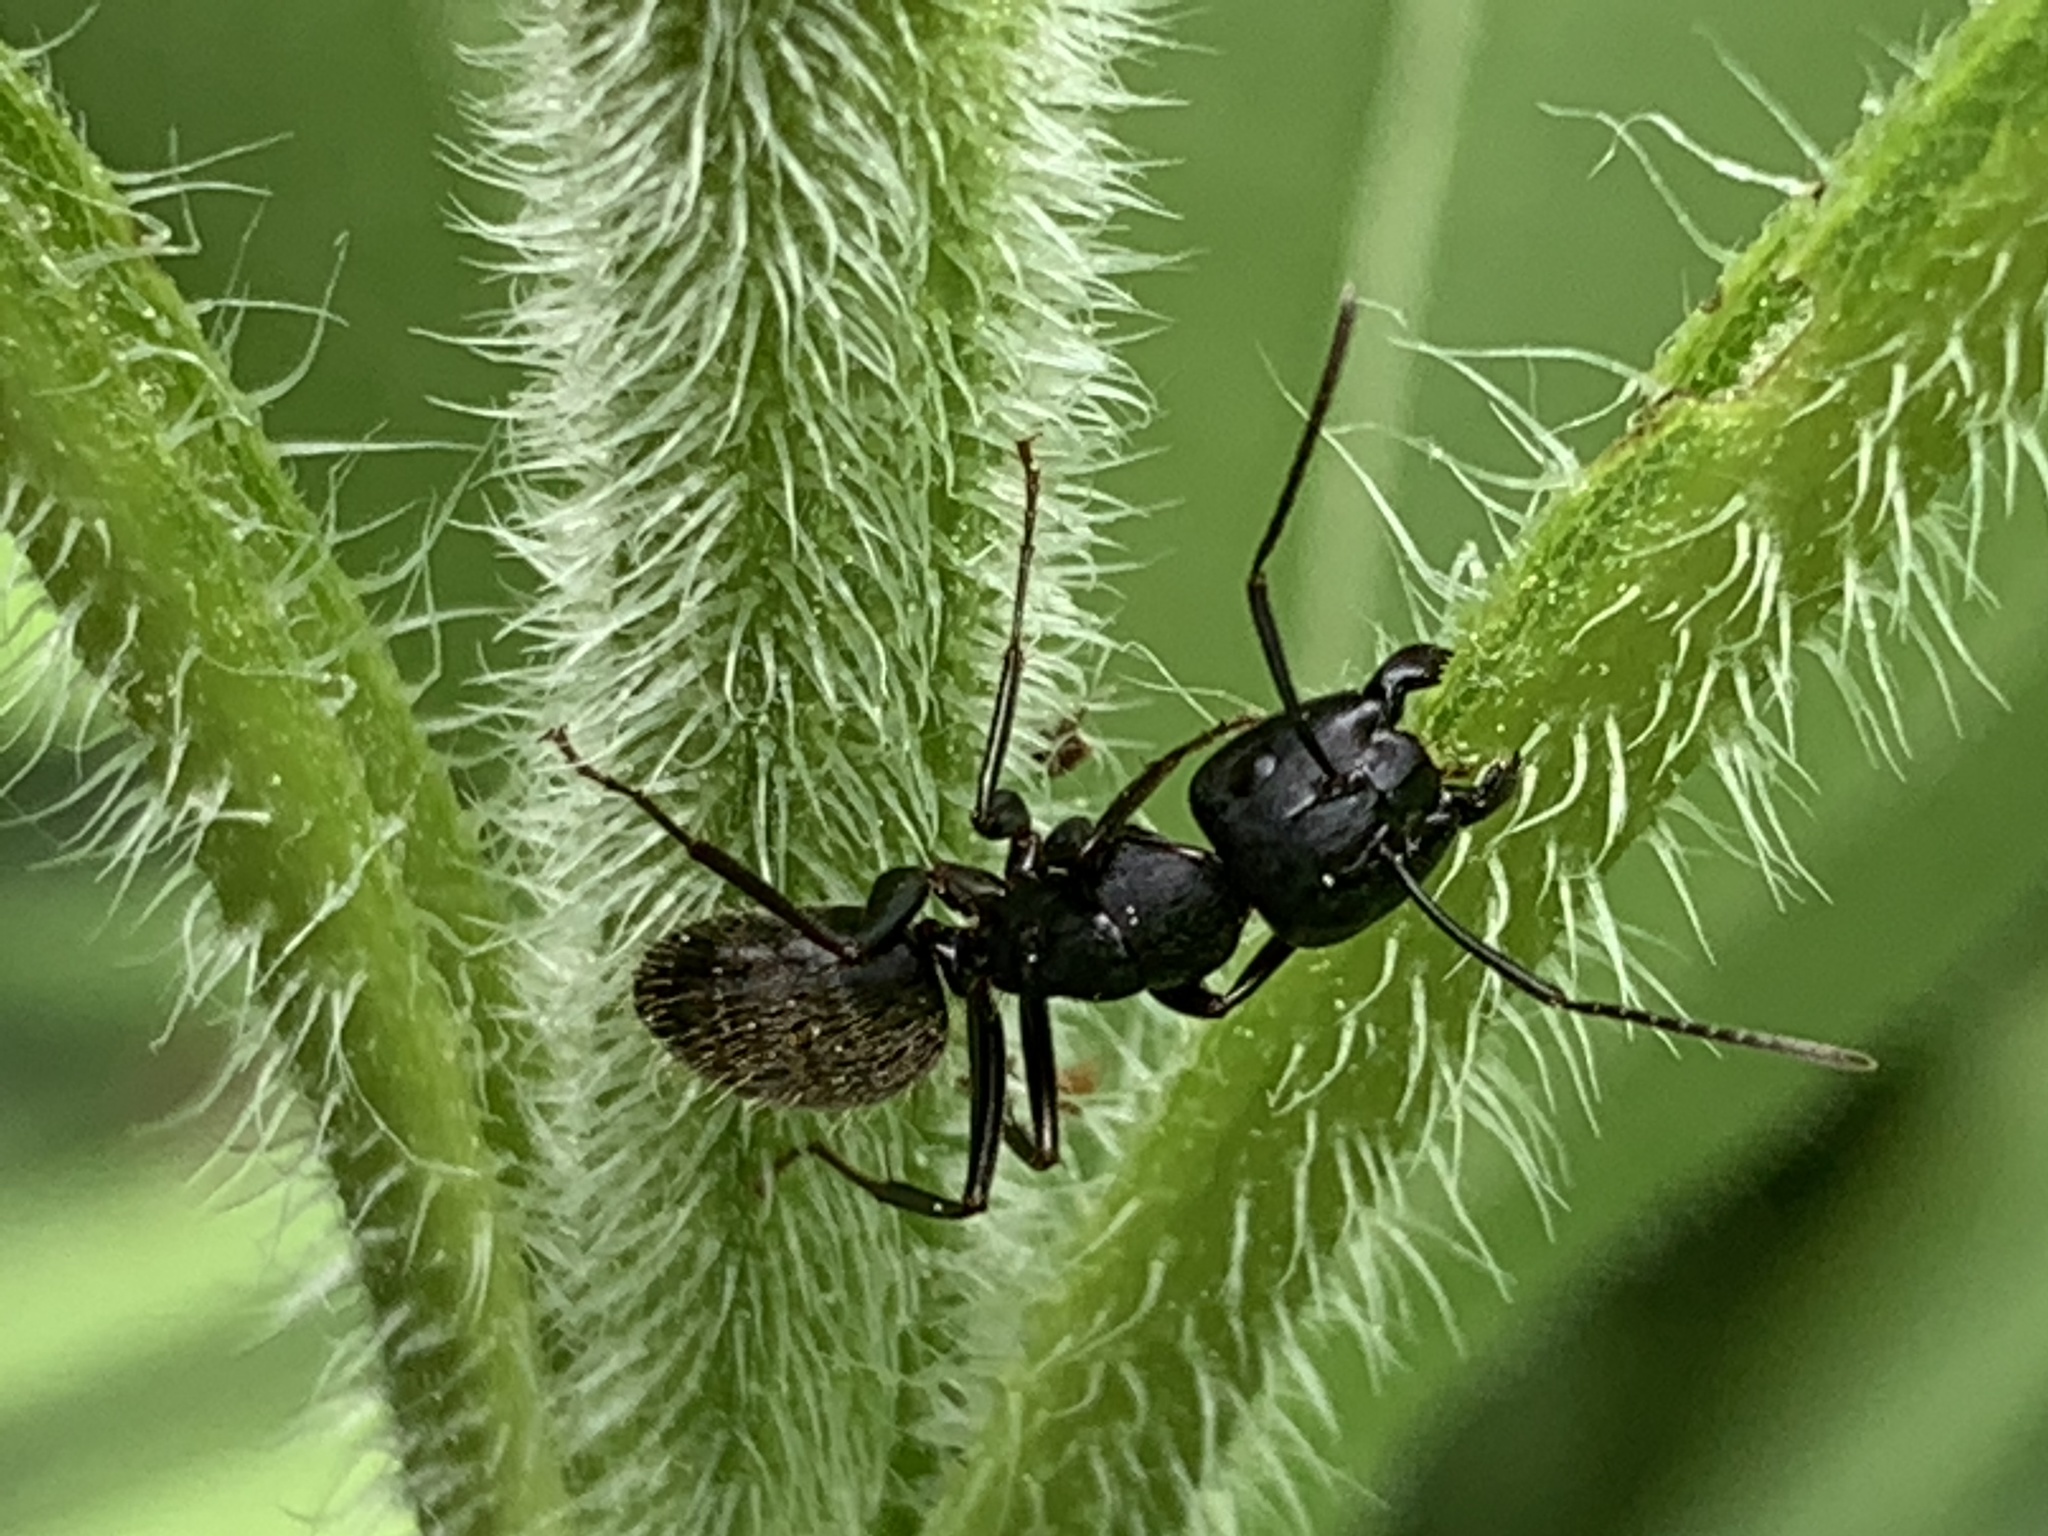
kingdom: Animalia
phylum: Arthropoda
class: Insecta
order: Hymenoptera
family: Formicidae
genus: Camponotus
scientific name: Camponotus pennsylvanicus
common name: Black carpenter ant
